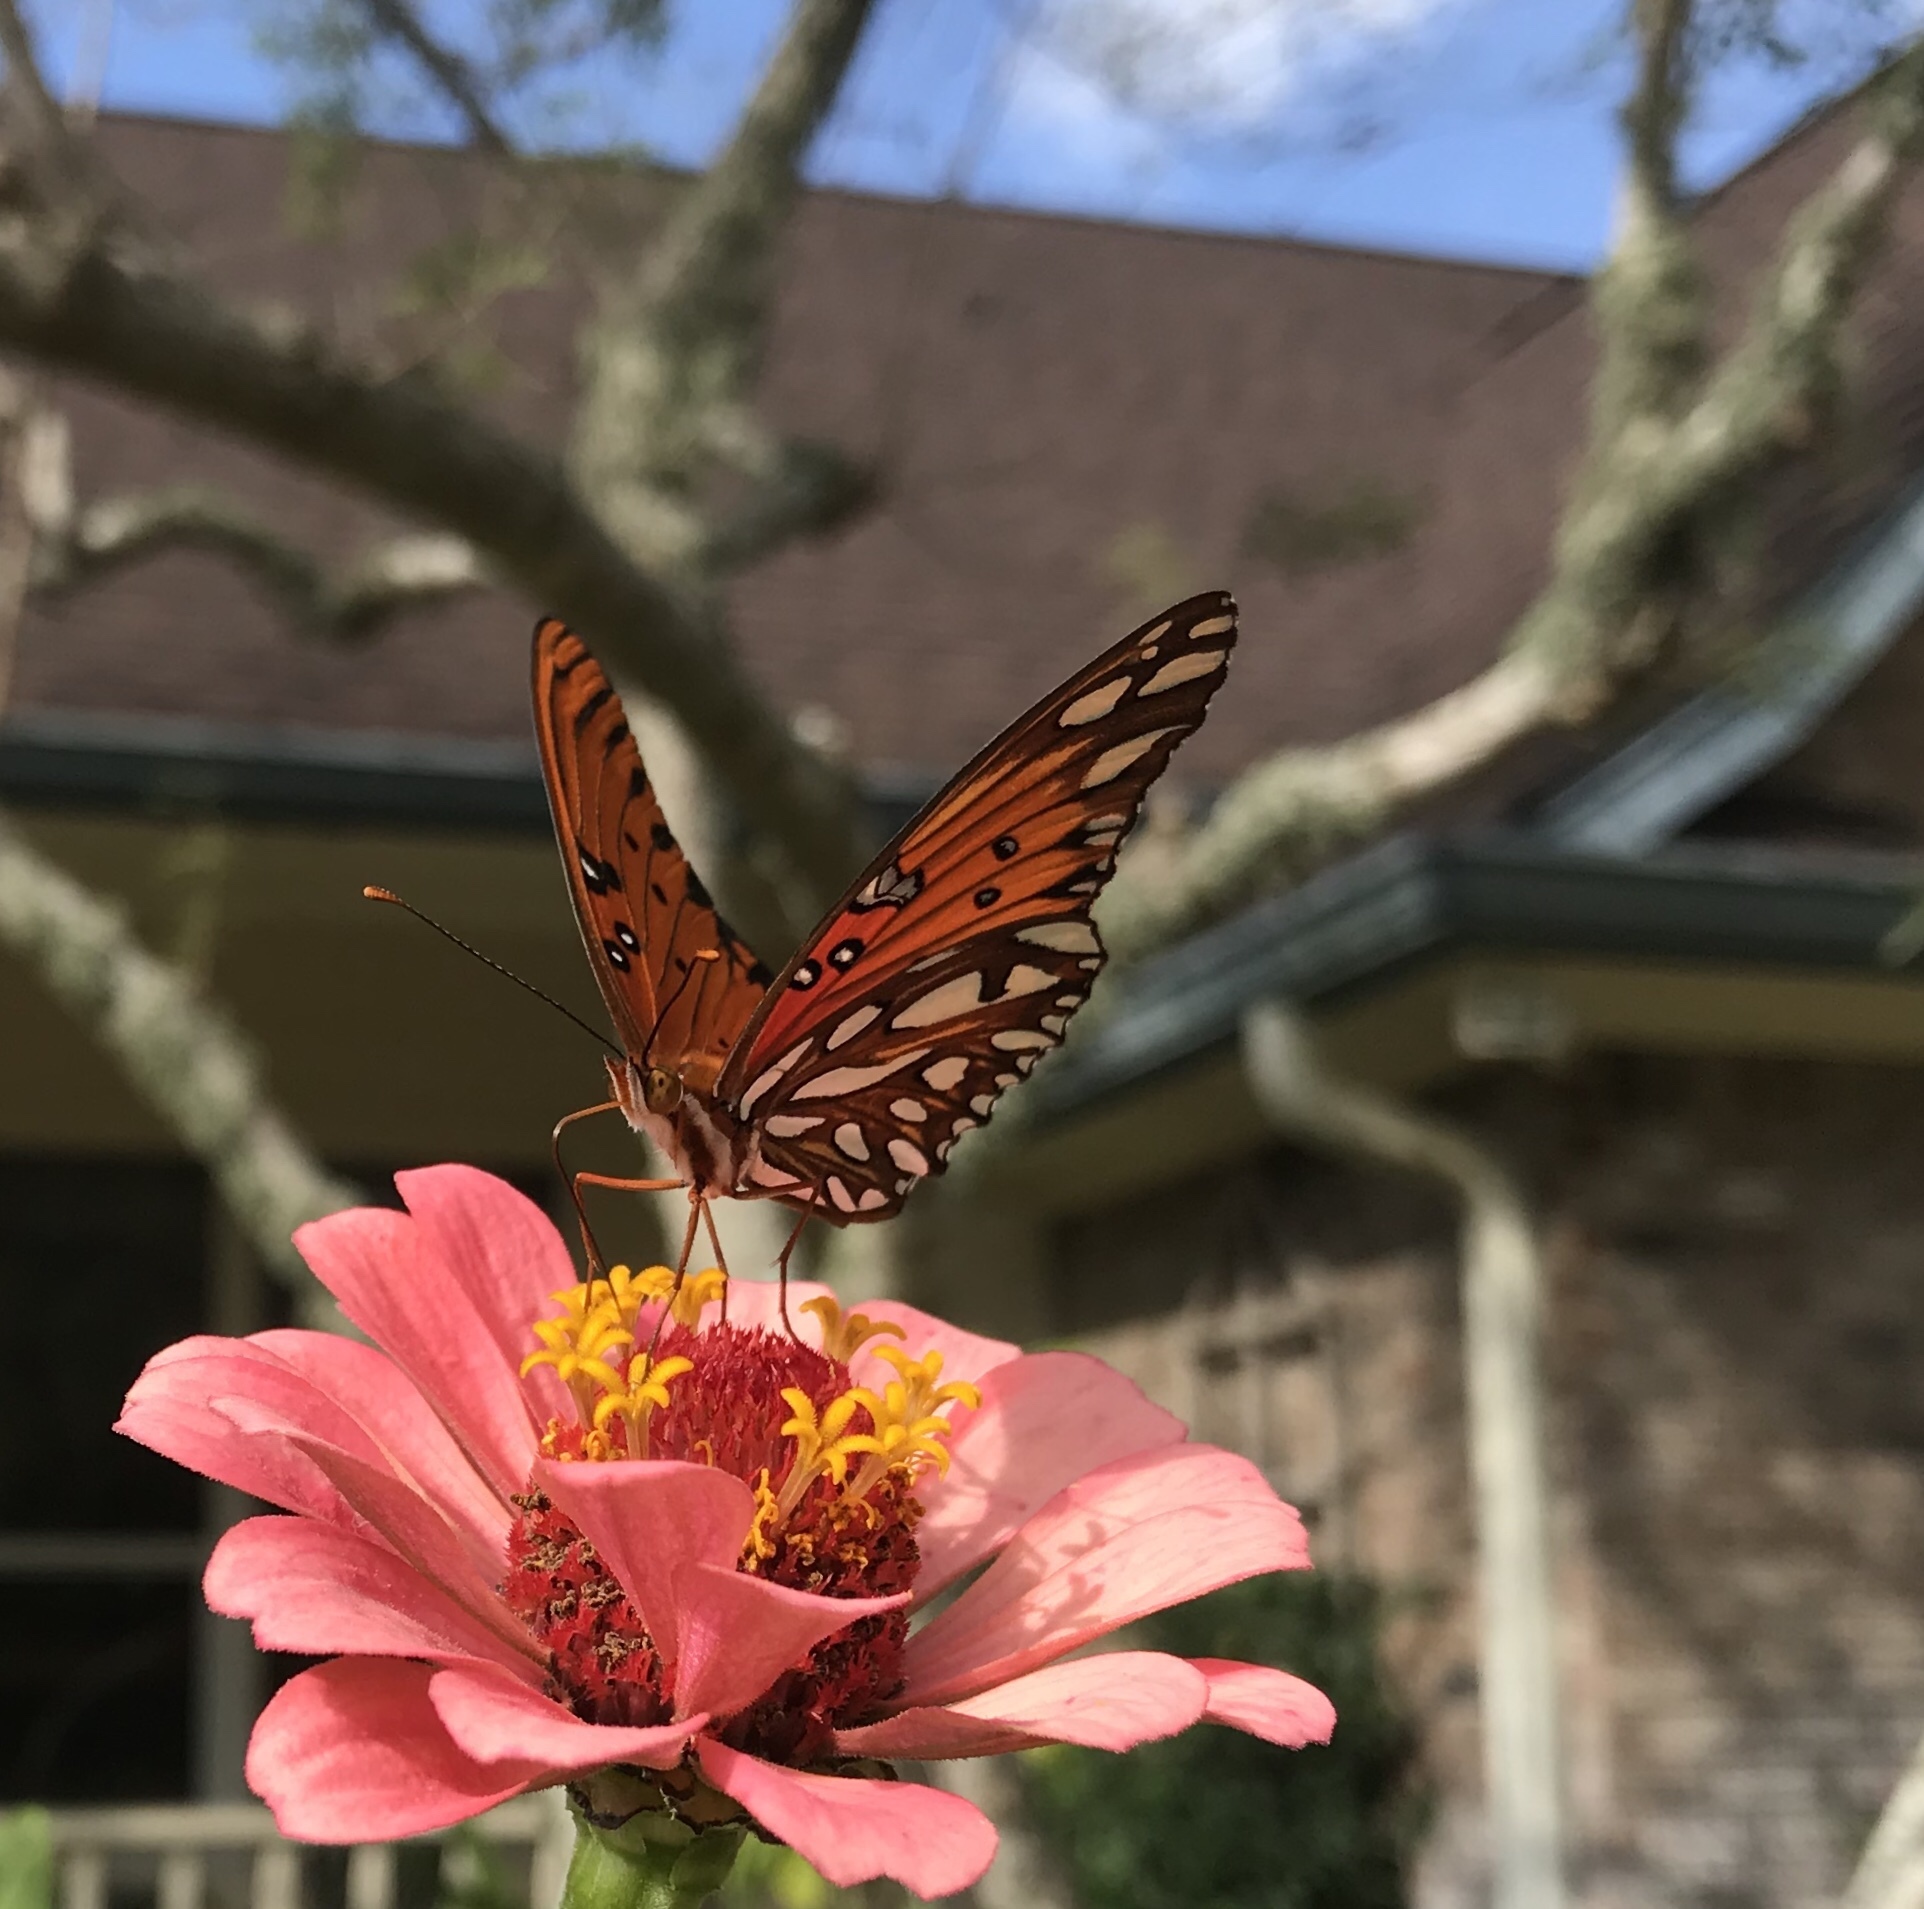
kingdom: Animalia
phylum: Arthropoda
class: Insecta
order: Lepidoptera
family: Nymphalidae
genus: Dione
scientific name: Dione vanillae
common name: Gulf fritillary
